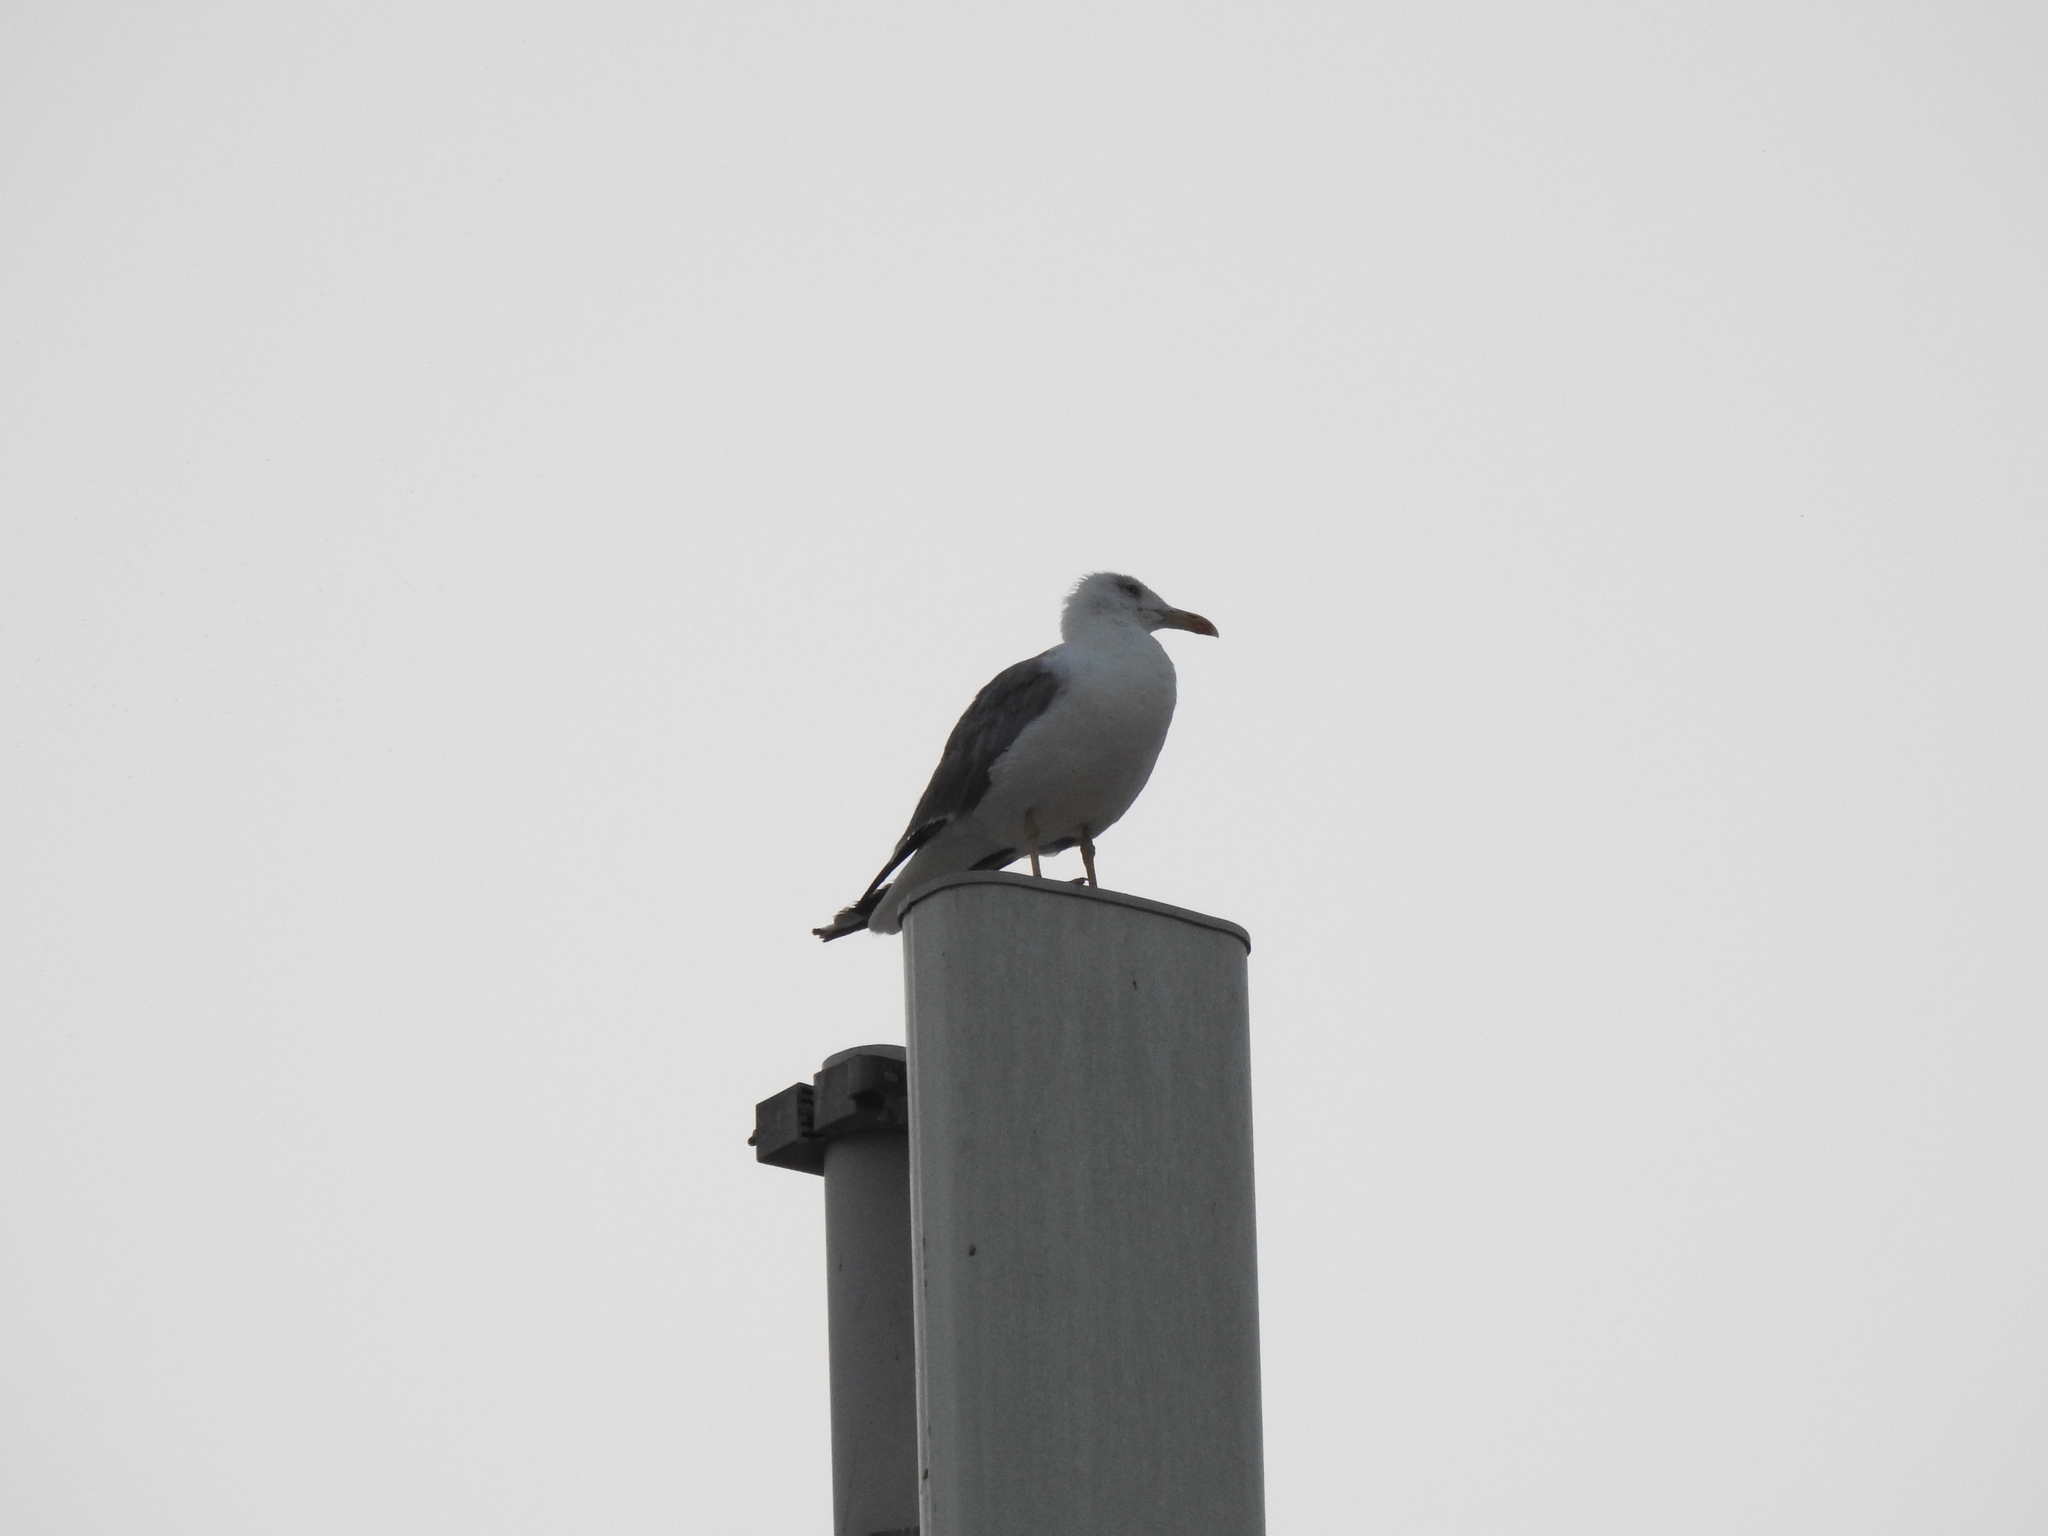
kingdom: Animalia
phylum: Chordata
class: Aves
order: Charadriiformes
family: Laridae
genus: Larus
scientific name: Larus michahellis
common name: Yellow-legged gull
